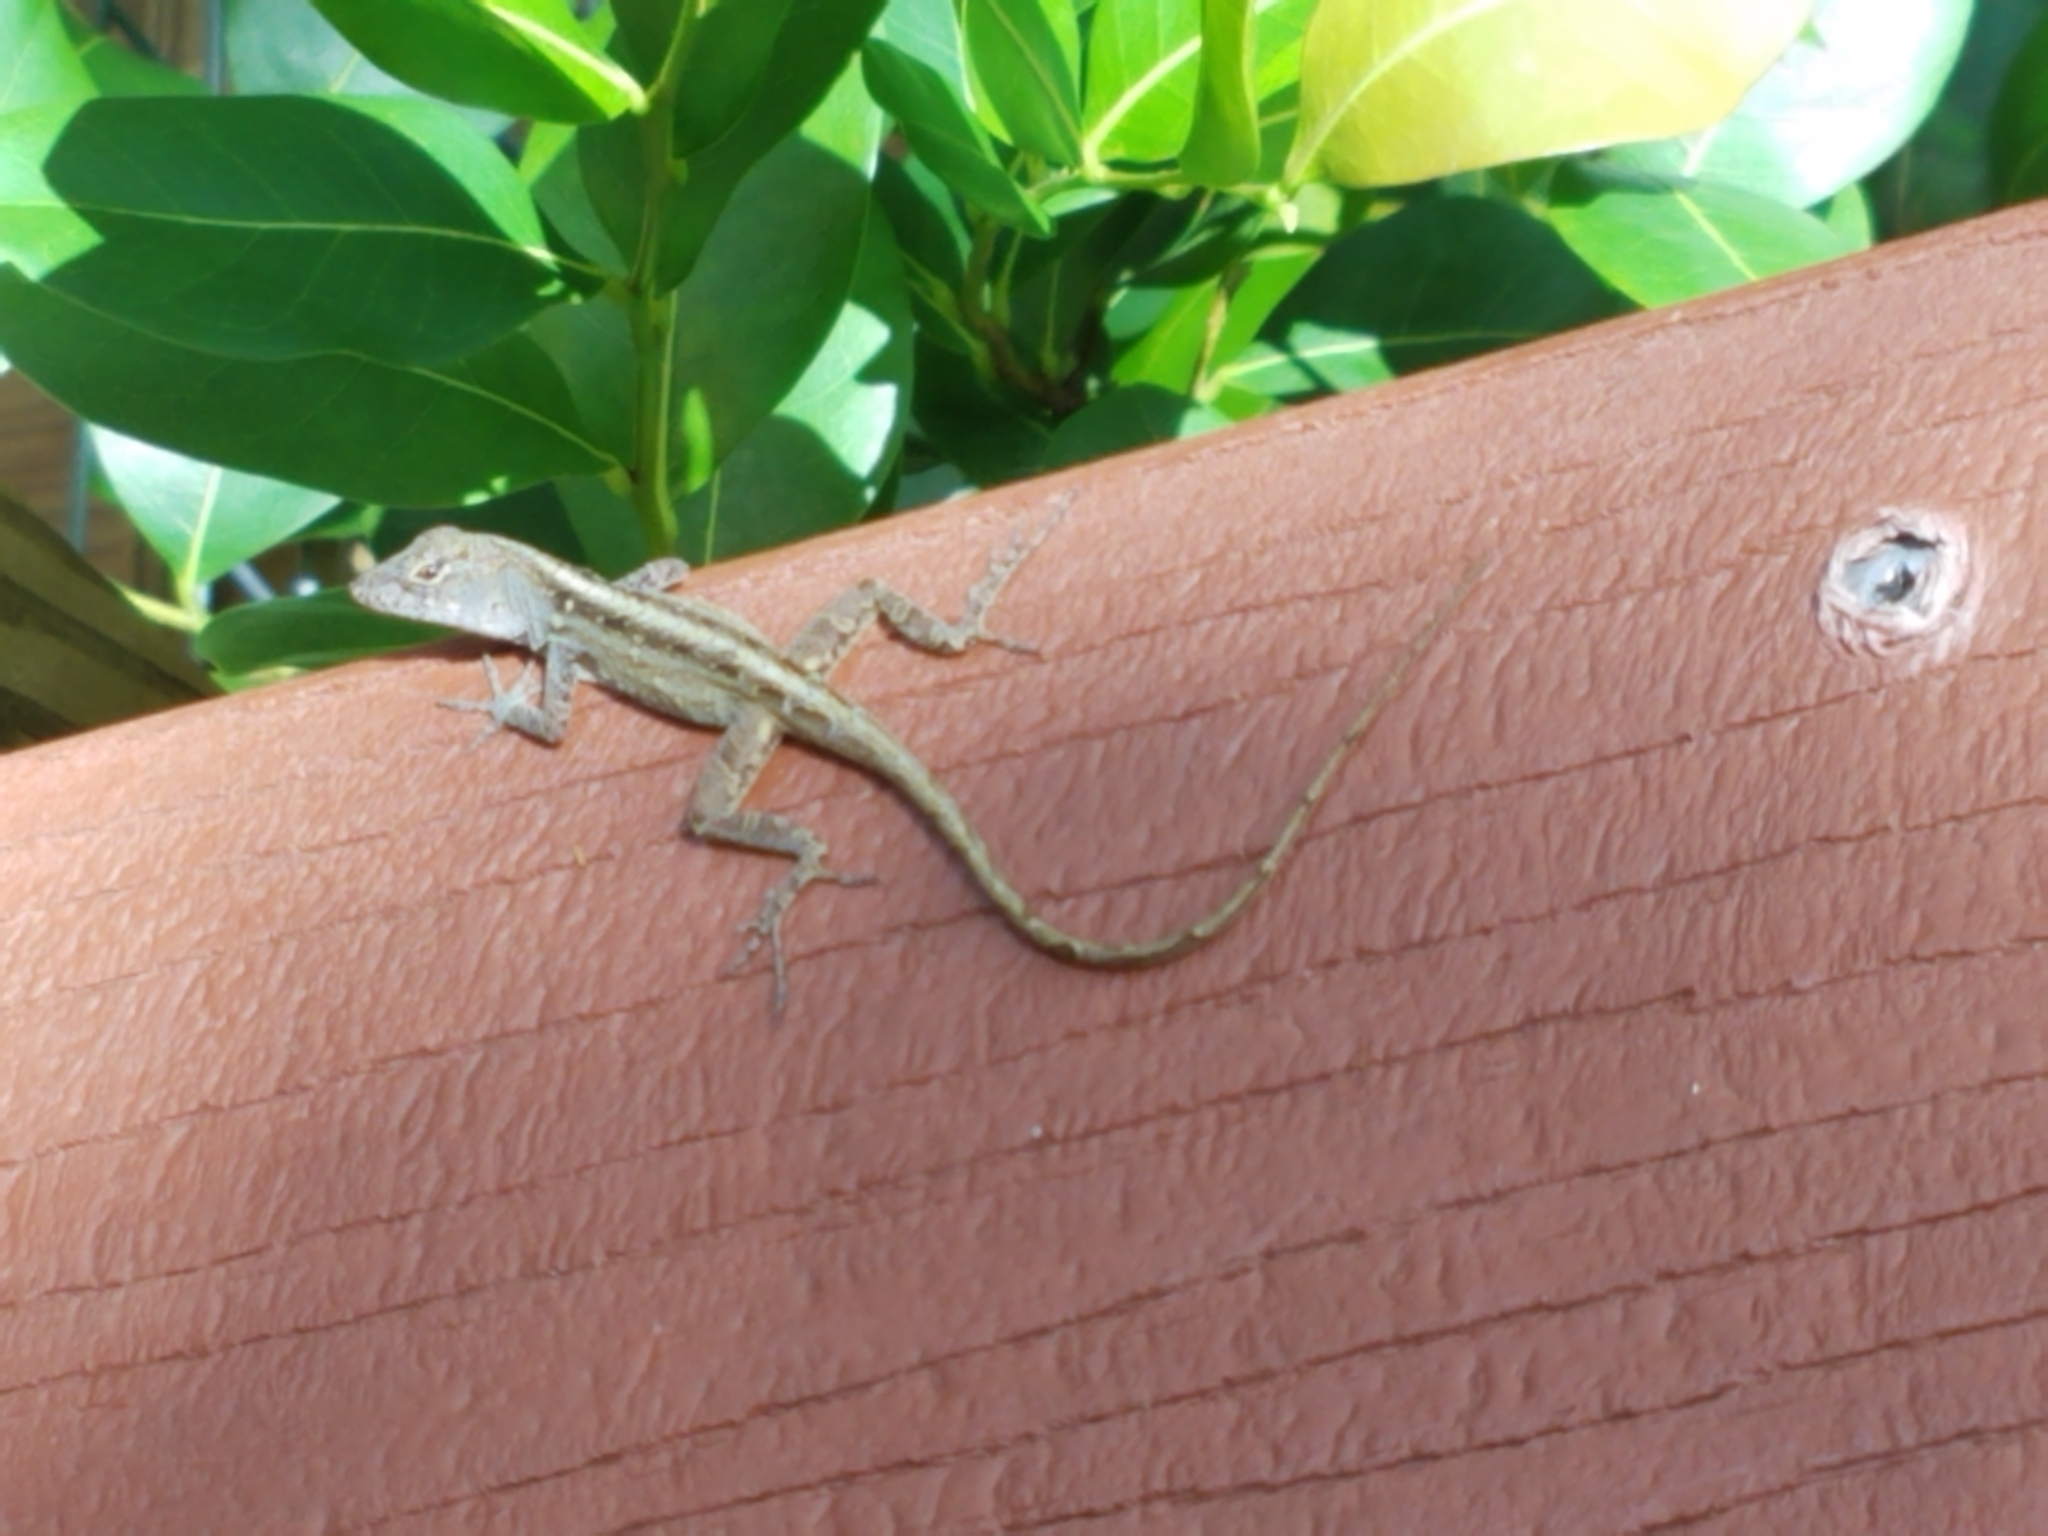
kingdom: Animalia
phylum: Chordata
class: Squamata
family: Dactyloidae
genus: Anolis
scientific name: Anolis sagrei
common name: Brown anole
